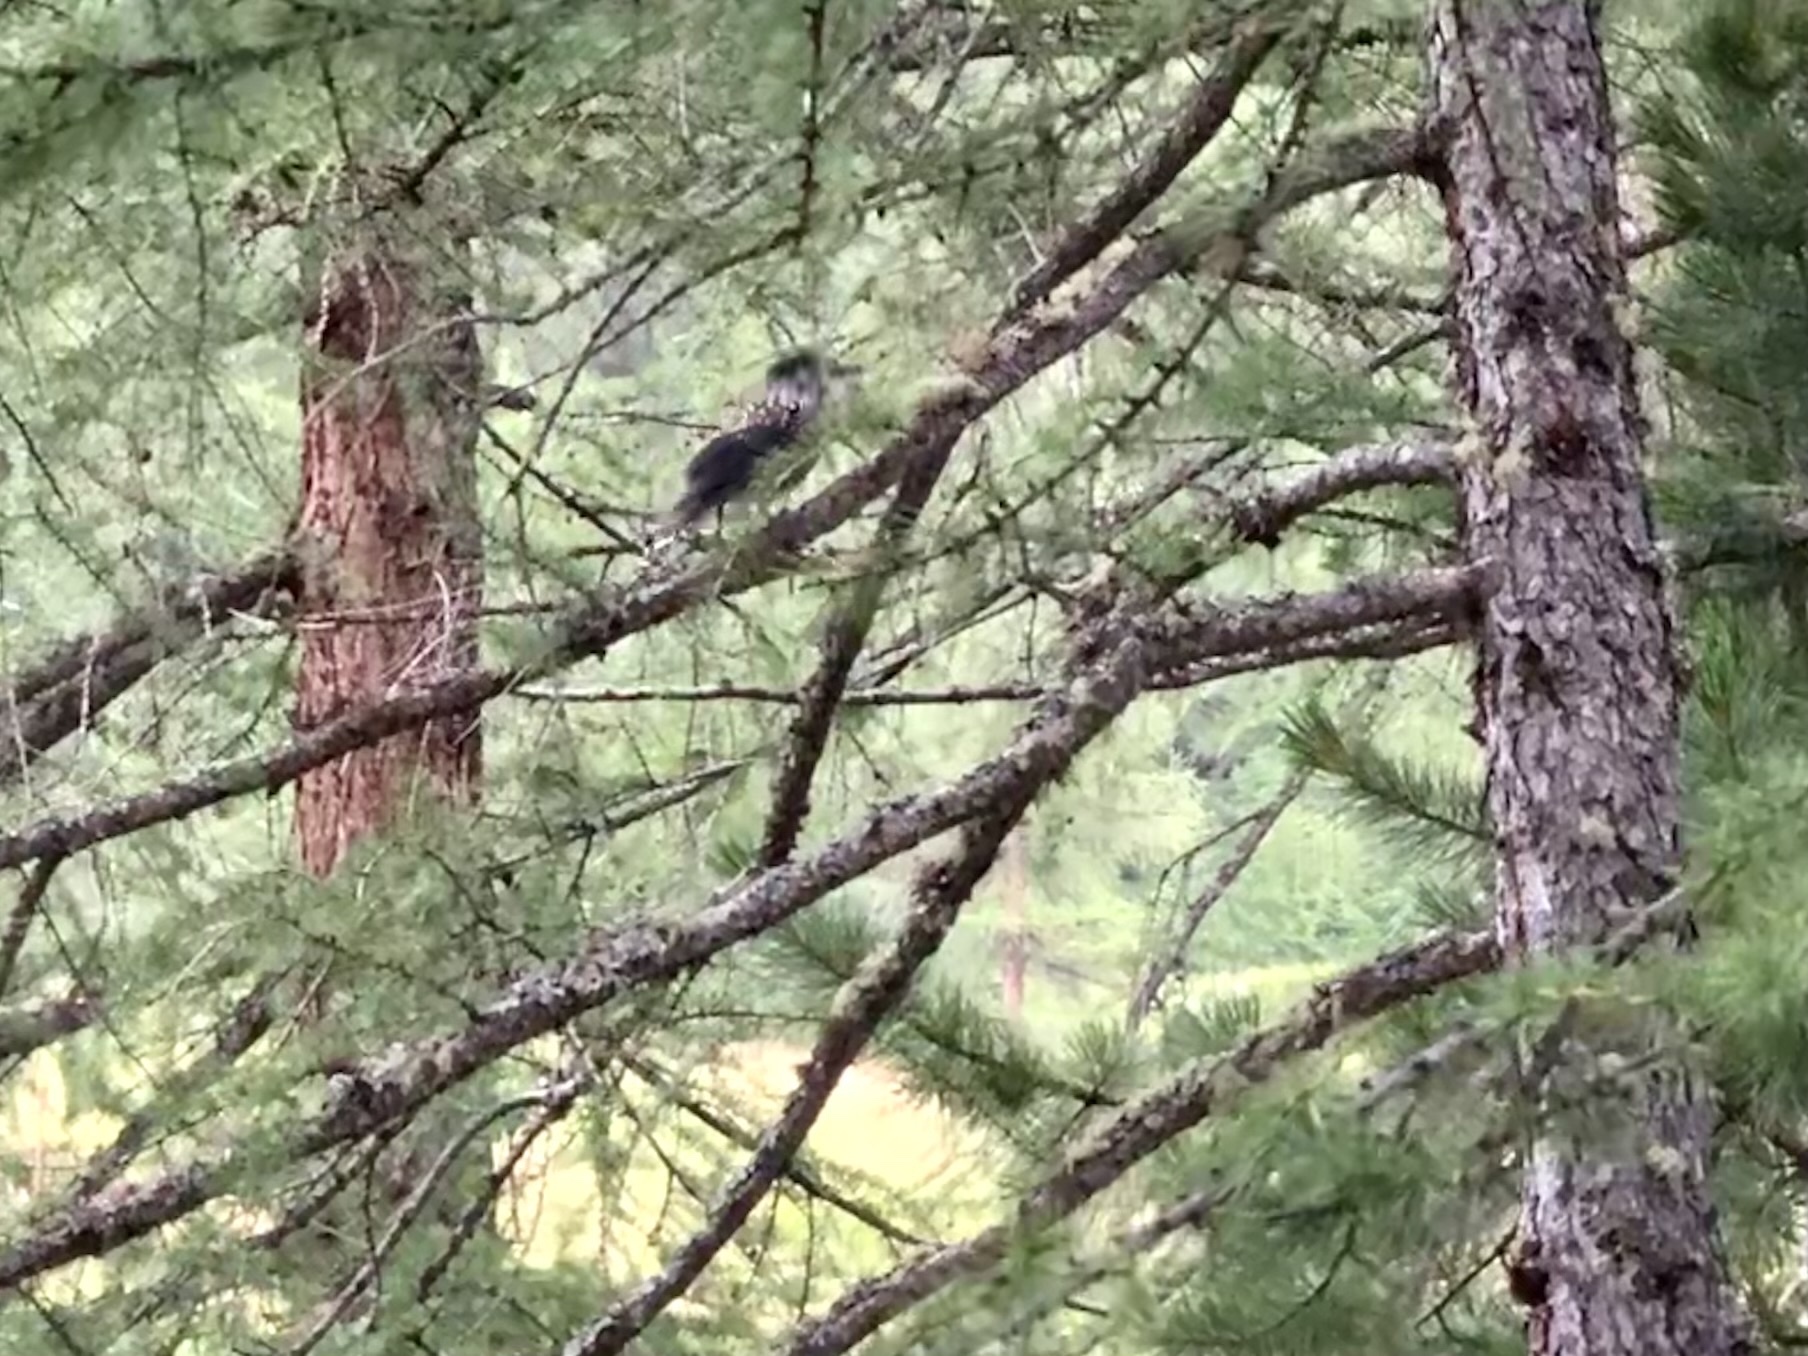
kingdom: Animalia
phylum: Chordata
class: Aves
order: Passeriformes
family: Corvidae
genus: Nucifraga
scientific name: Nucifraga caryocatactes
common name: Spotted nutcracker
